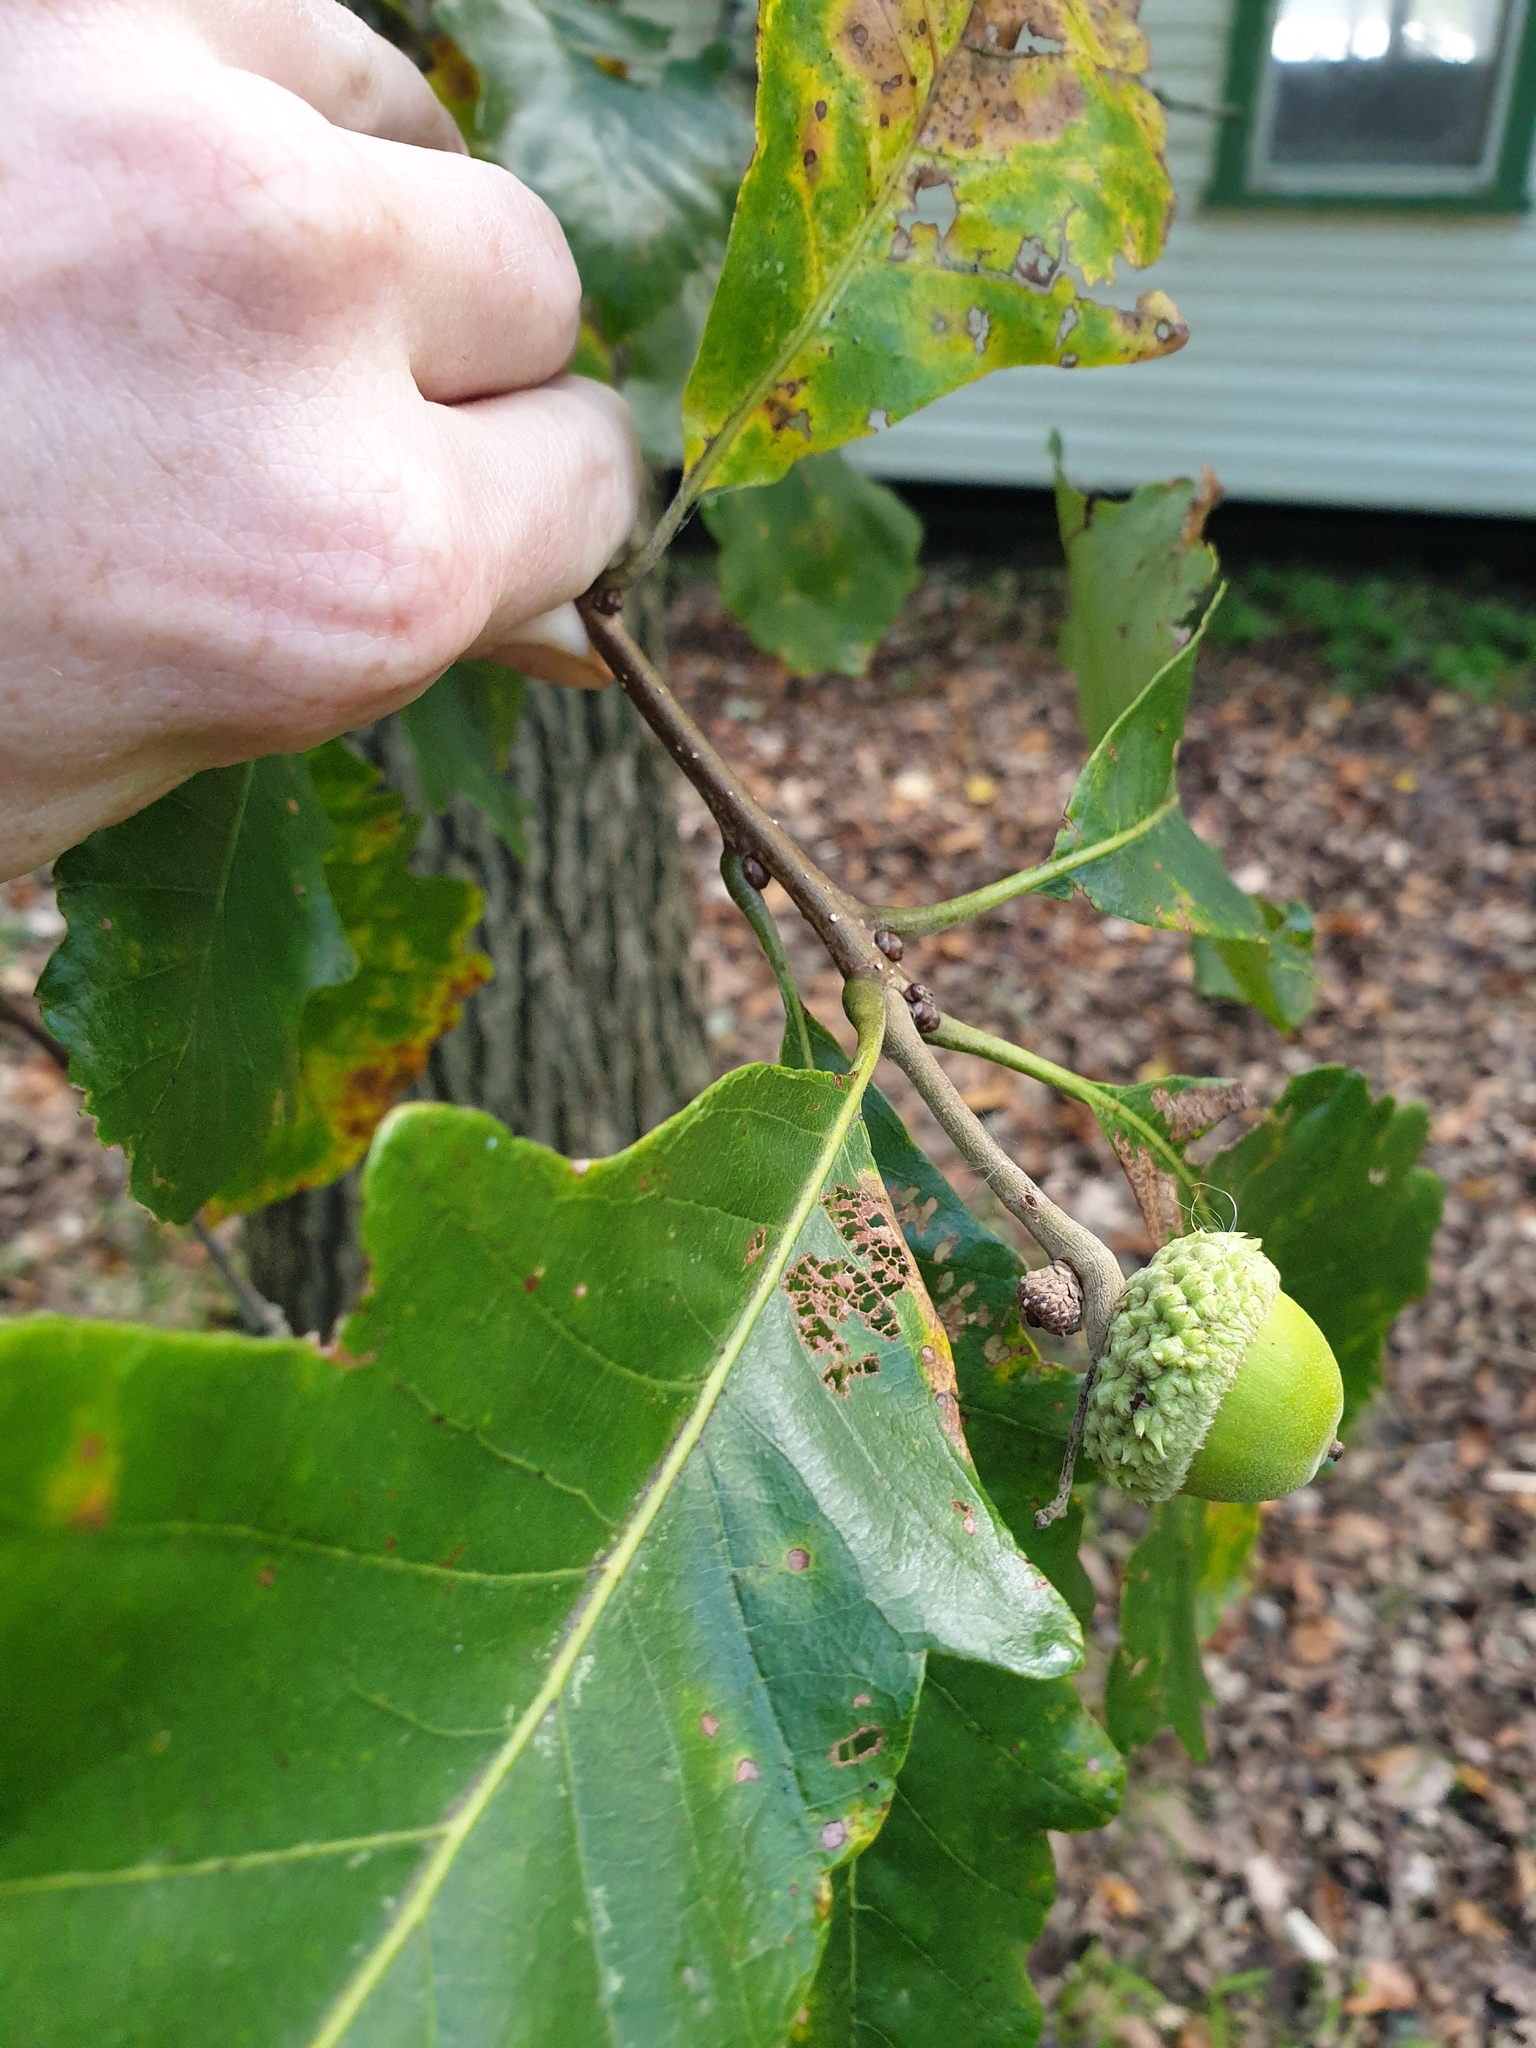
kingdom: Plantae
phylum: Tracheophyta
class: Magnoliopsida
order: Fagales
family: Fagaceae
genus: Quercus
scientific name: Quercus bicolor
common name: Swamp white oak
